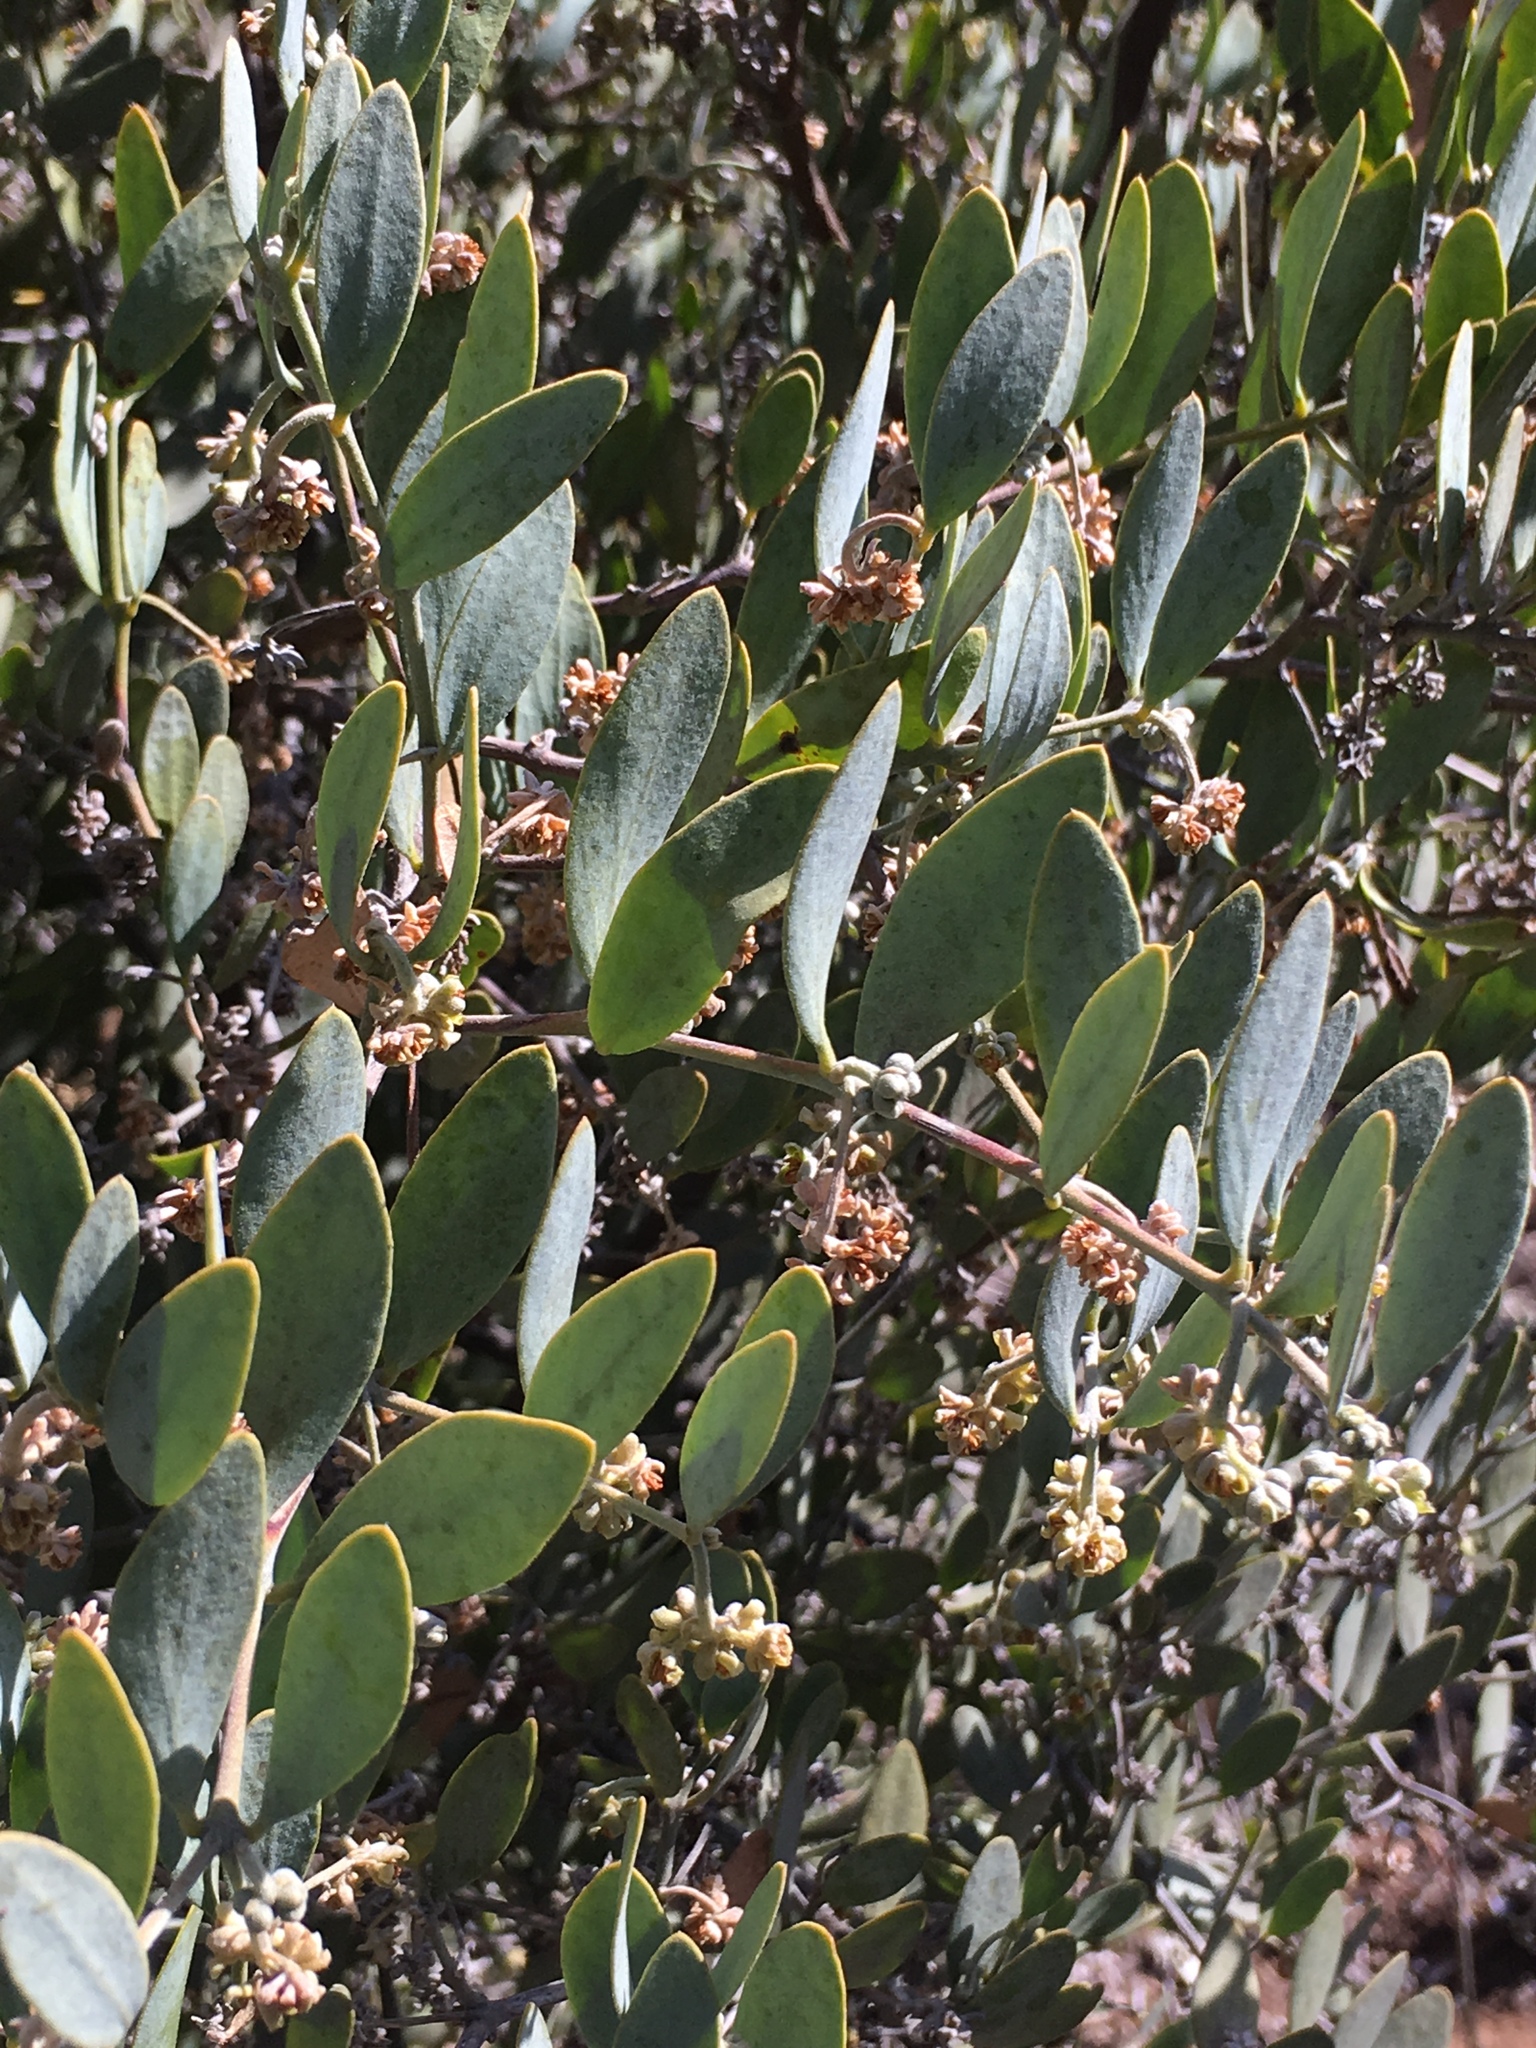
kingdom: Plantae
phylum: Tracheophyta
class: Magnoliopsida
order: Caryophyllales
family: Simmondsiaceae
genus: Simmondsia
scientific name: Simmondsia chinensis
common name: Jojoba
